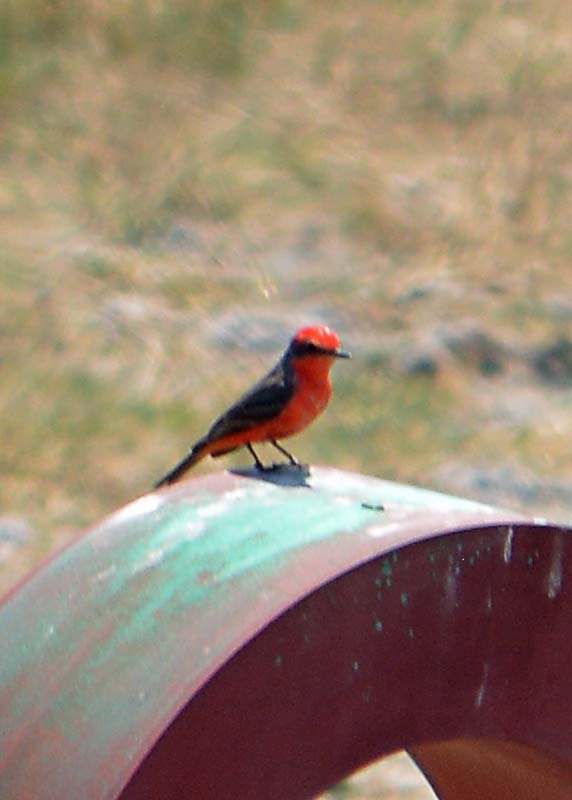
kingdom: Animalia
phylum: Chordata
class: Aves
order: Passeriformes
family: Tyrannidae
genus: Pyrocephalus
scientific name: Pyrocephalus rubinus
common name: Vermilion flycatcher
